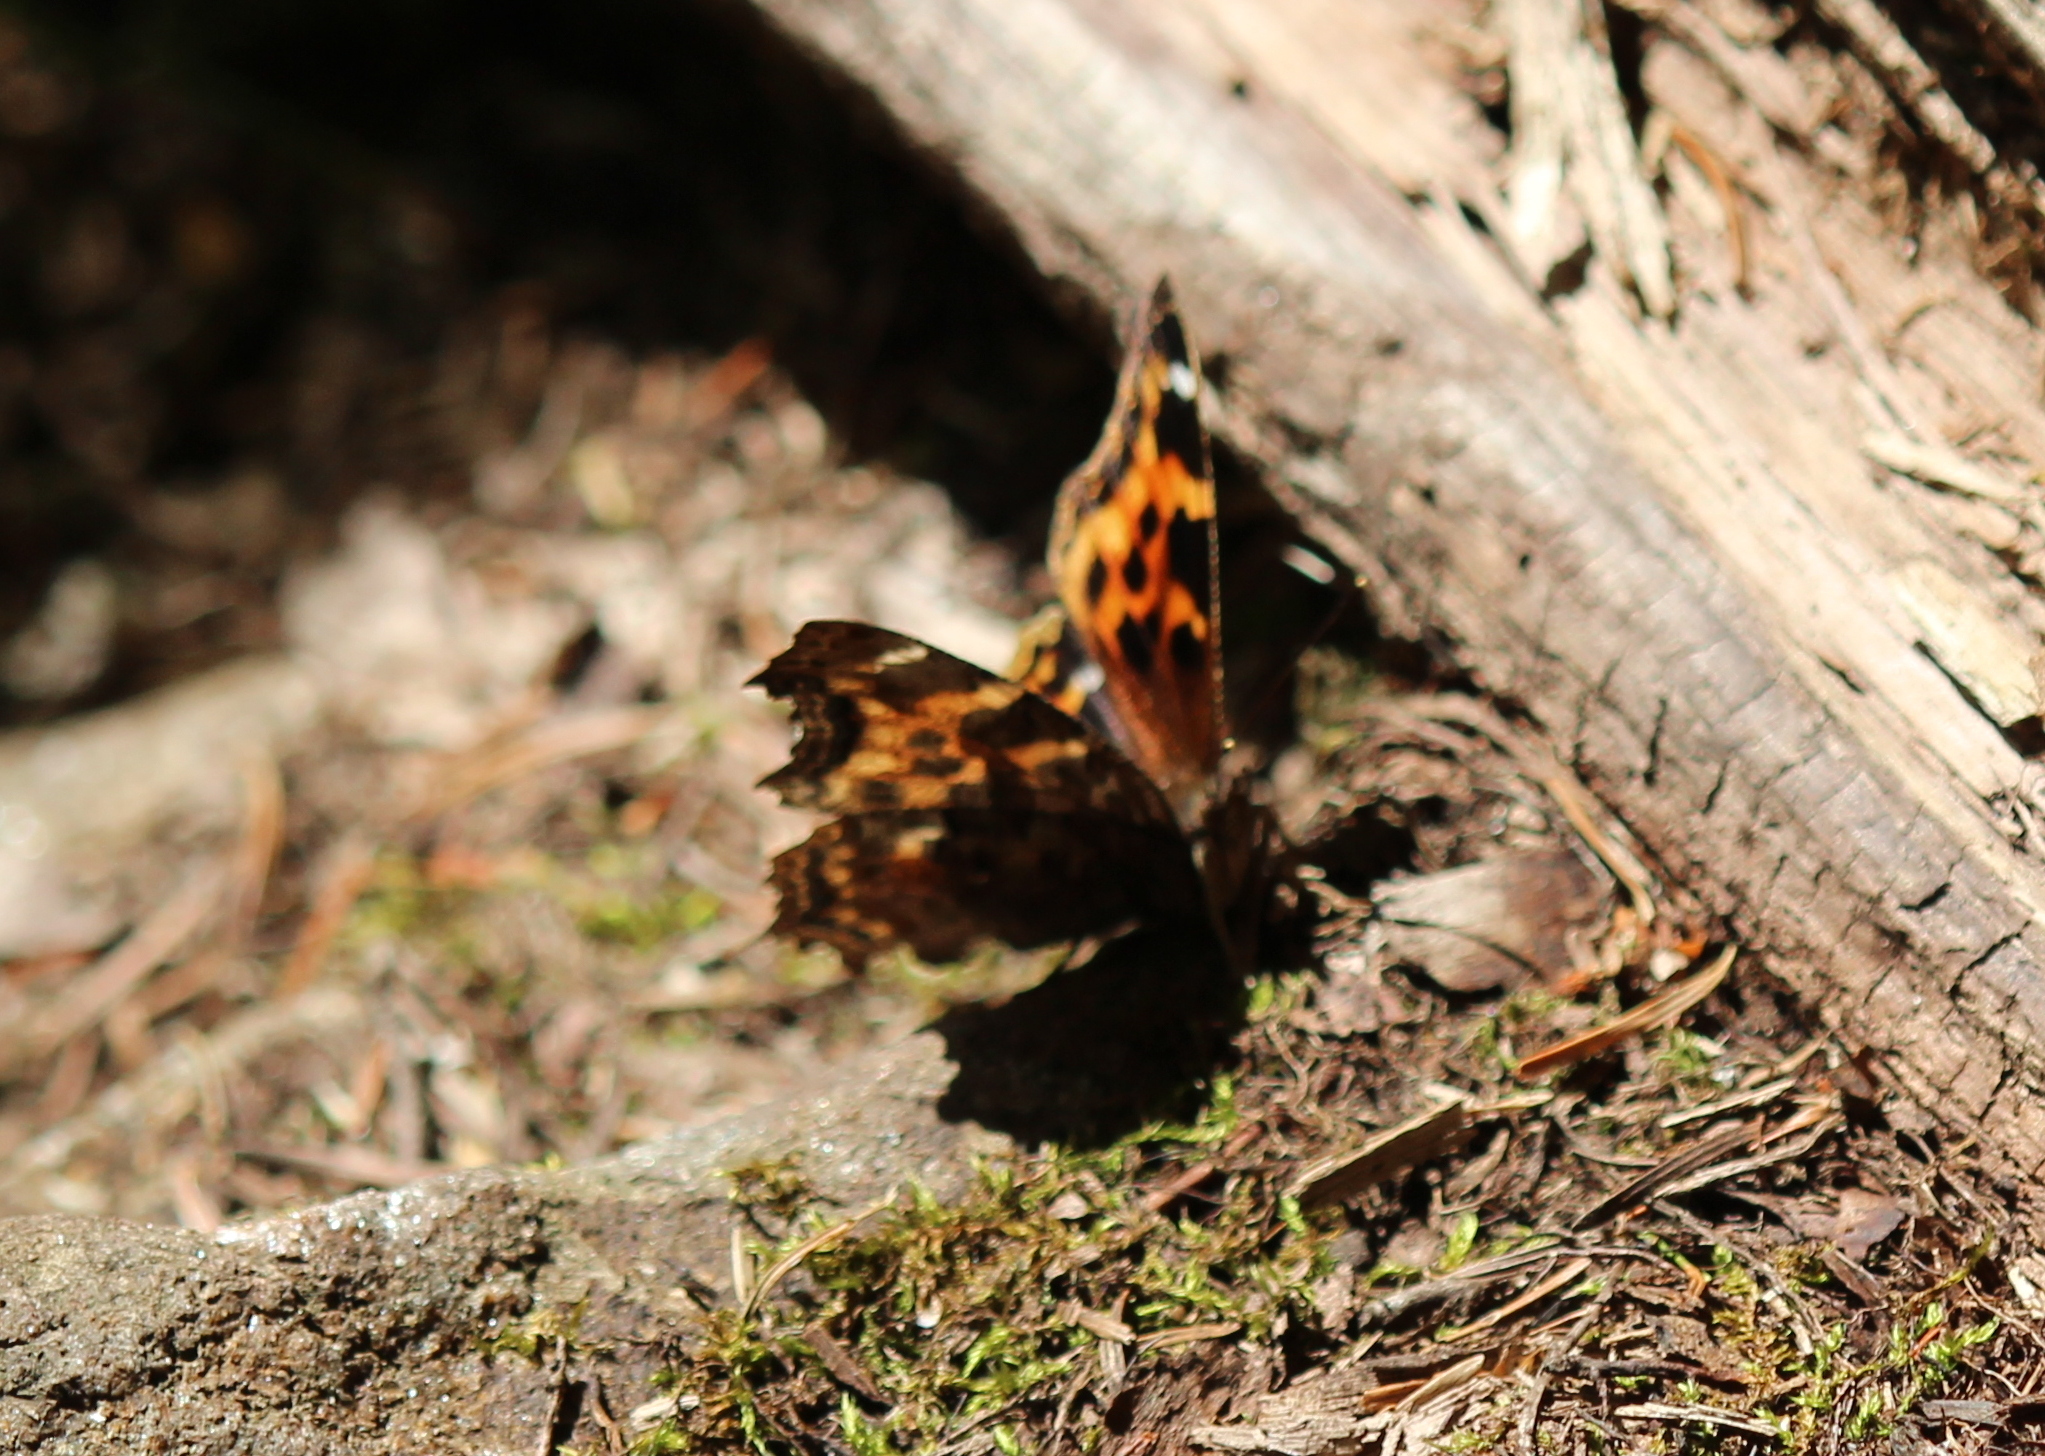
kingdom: Animalia
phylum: Arthropoda
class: Insecta
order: Lepidoptera
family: Nymphalidae
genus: Polygonia
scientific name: Polygonia vaualbum
